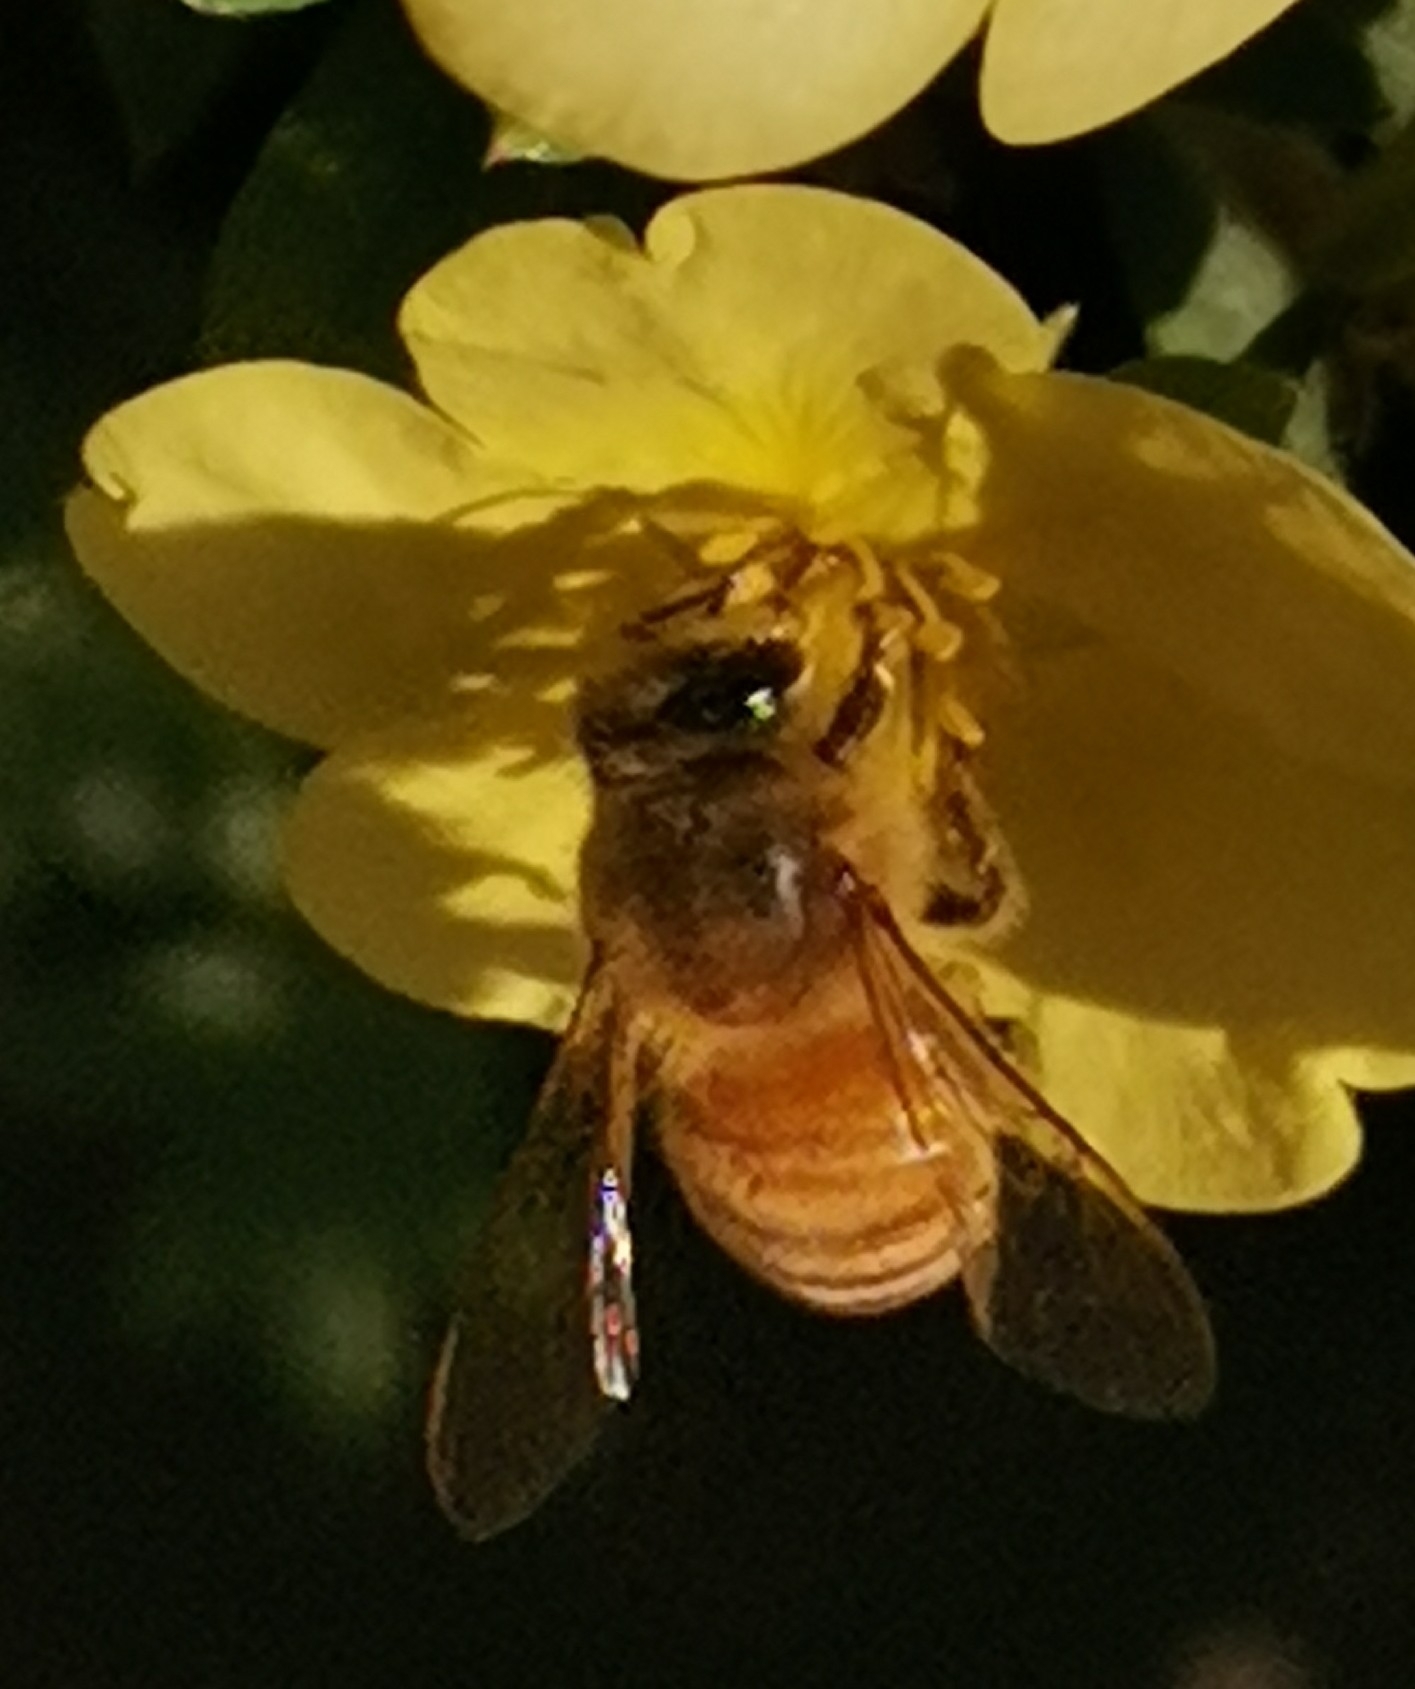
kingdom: Animalia
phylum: Arthropoda
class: Insecta
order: Hymenoptera
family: Apidae
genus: Apis
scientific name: Apis mellifera
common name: Honey bee
